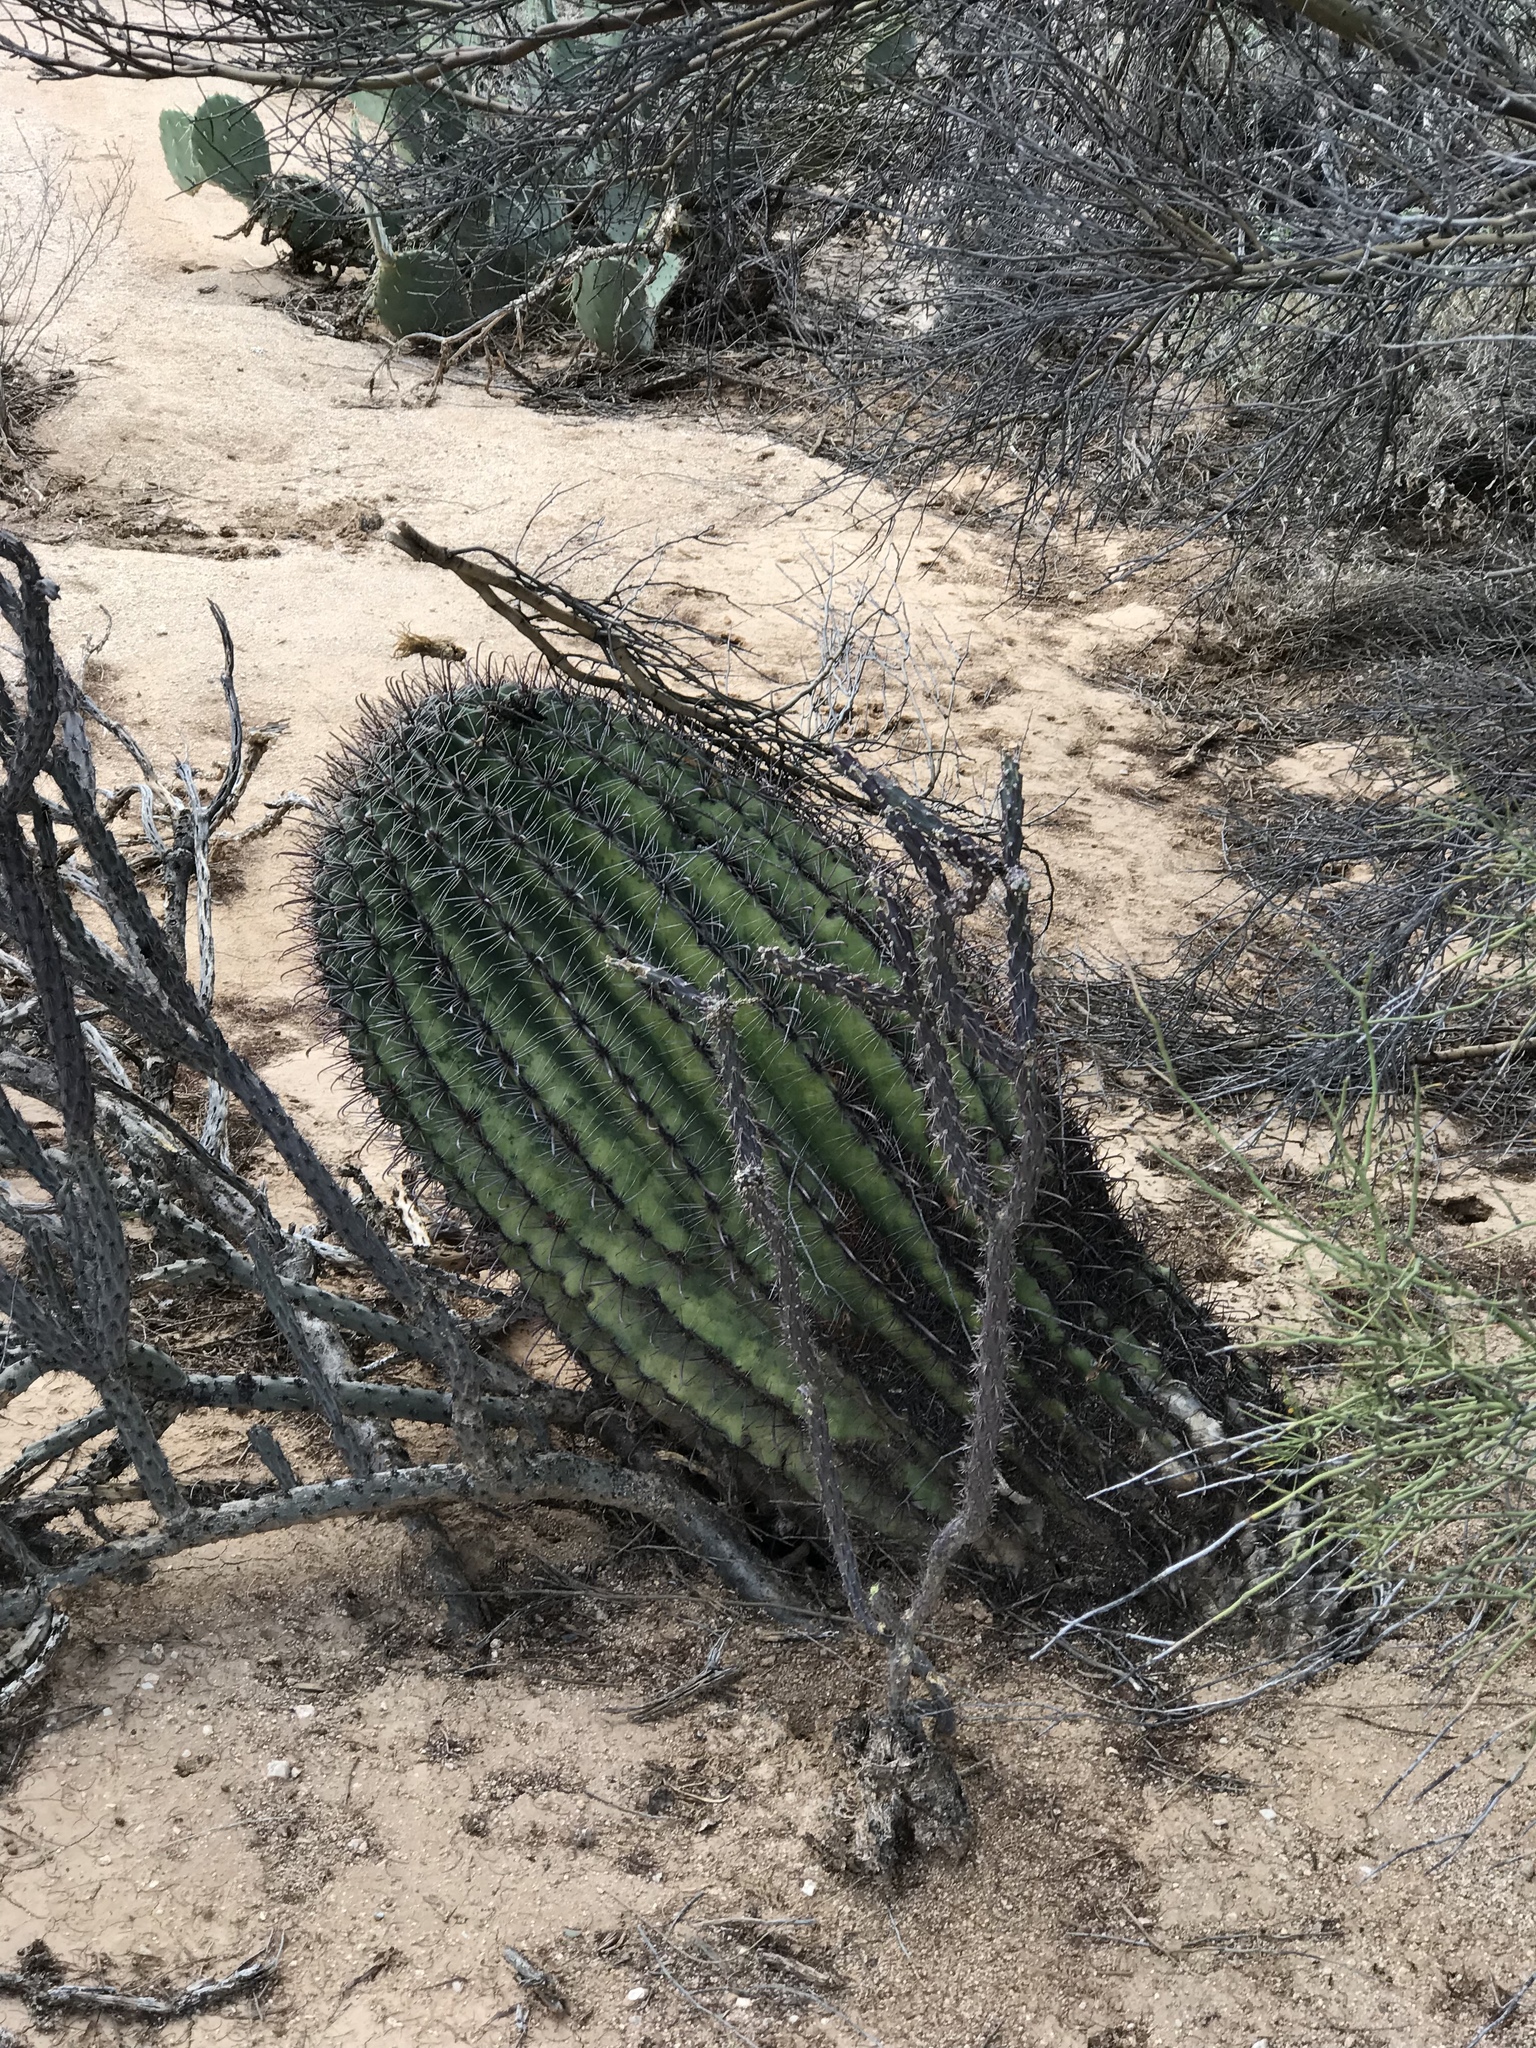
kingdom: Plantae
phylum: Tracheophyta
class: Magnoliopsida
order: Caryophyllales
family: Cactaceae
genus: Ferocactus
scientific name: Ferocactus wislizeni
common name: Candy barrel cactus
